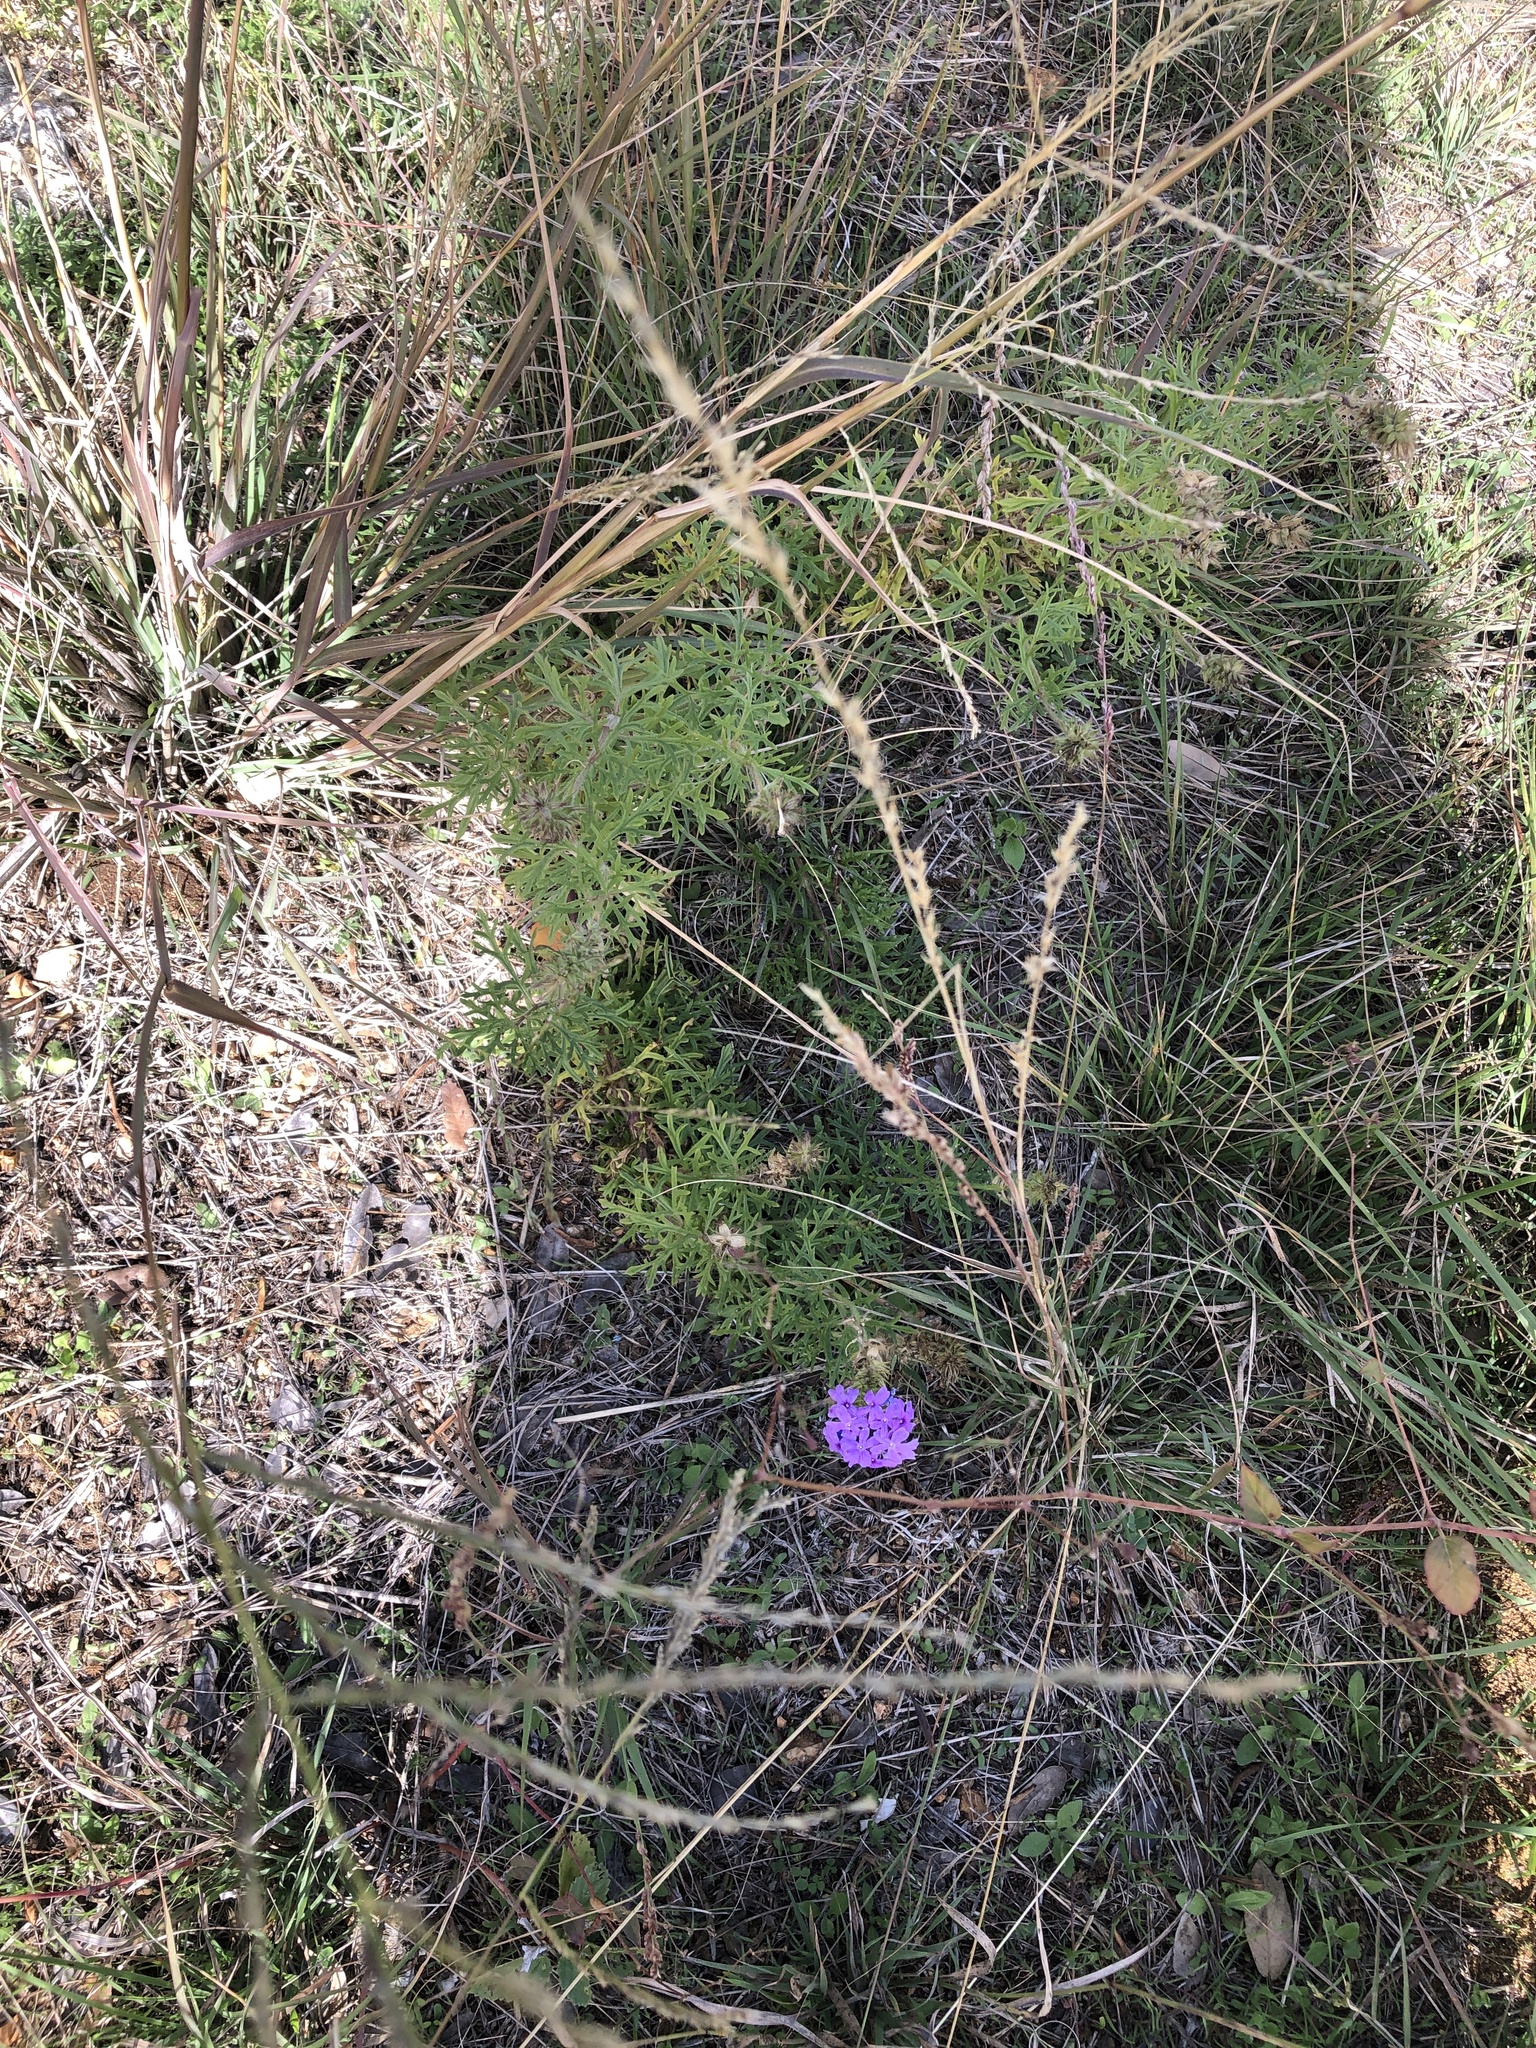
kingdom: Plantae
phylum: Tracheophyta
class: Magnoliopsida
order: Lamiales
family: Verbenaceae
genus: Verbena
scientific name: Verbena bipinnatifida
